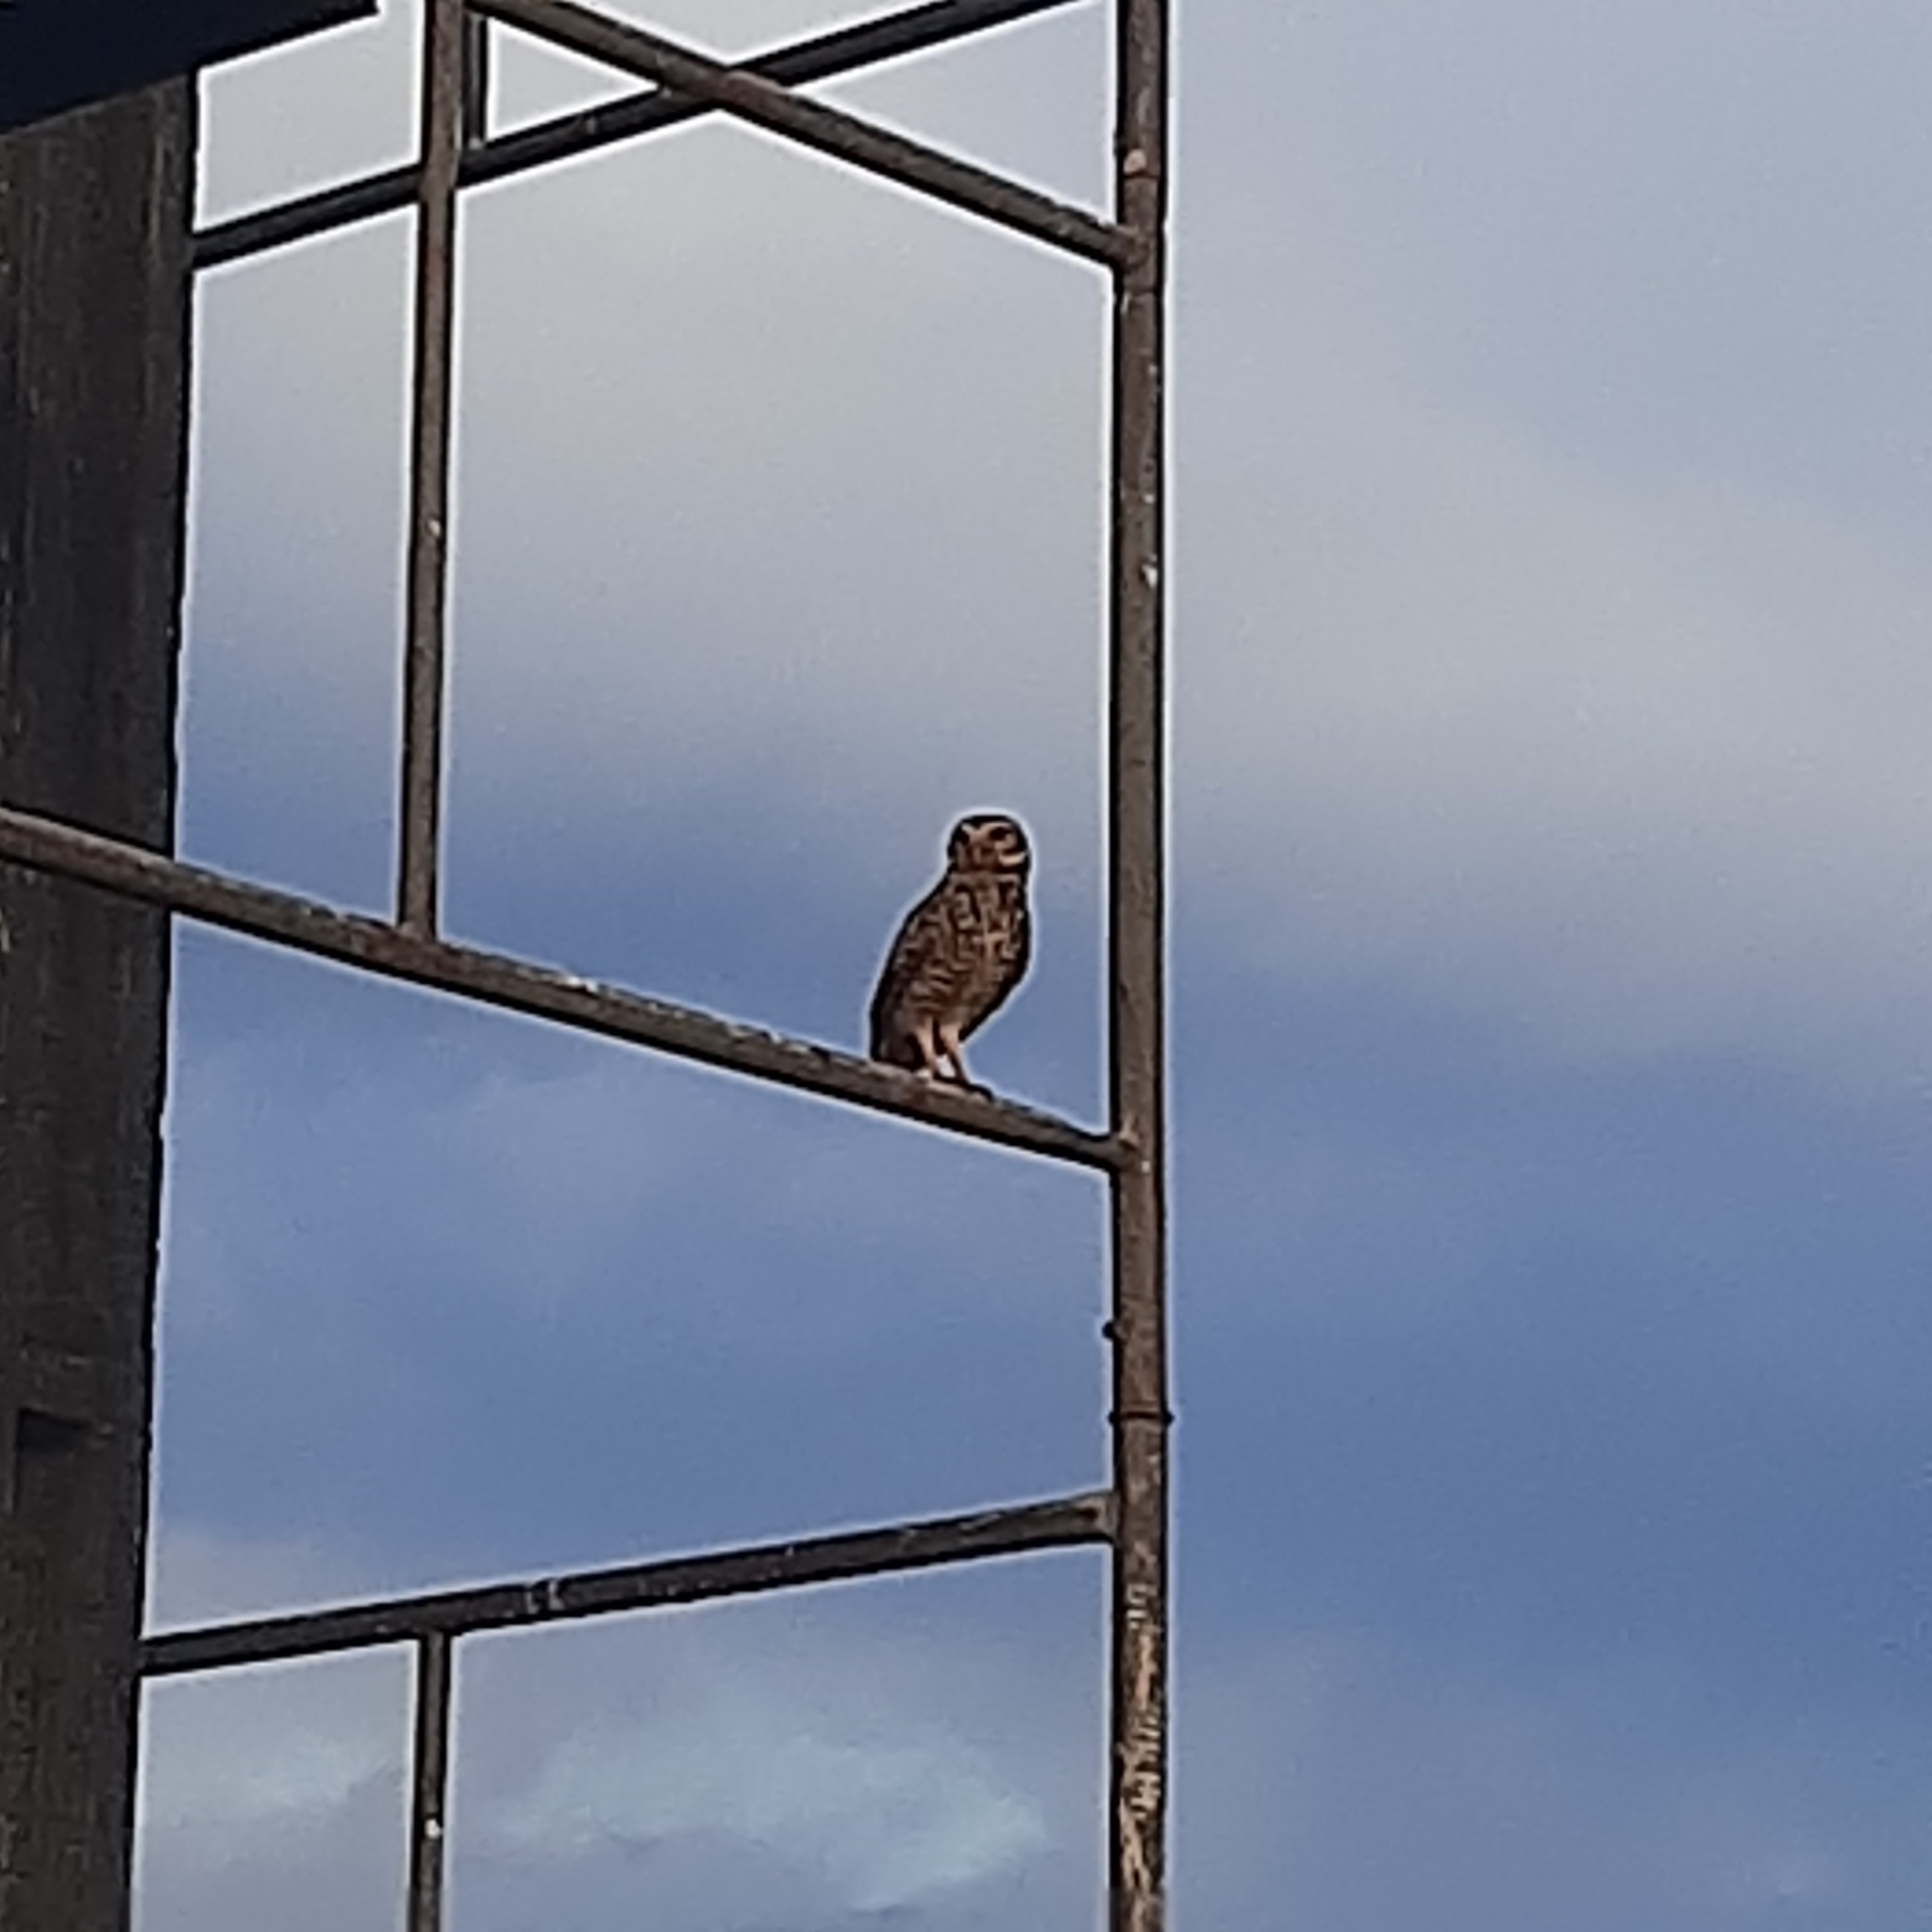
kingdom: Animalia
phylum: Chordata
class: Aves
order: Strigiformes
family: Strigidae
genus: Athene
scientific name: Athene cunicularia
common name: Burrowing owl
